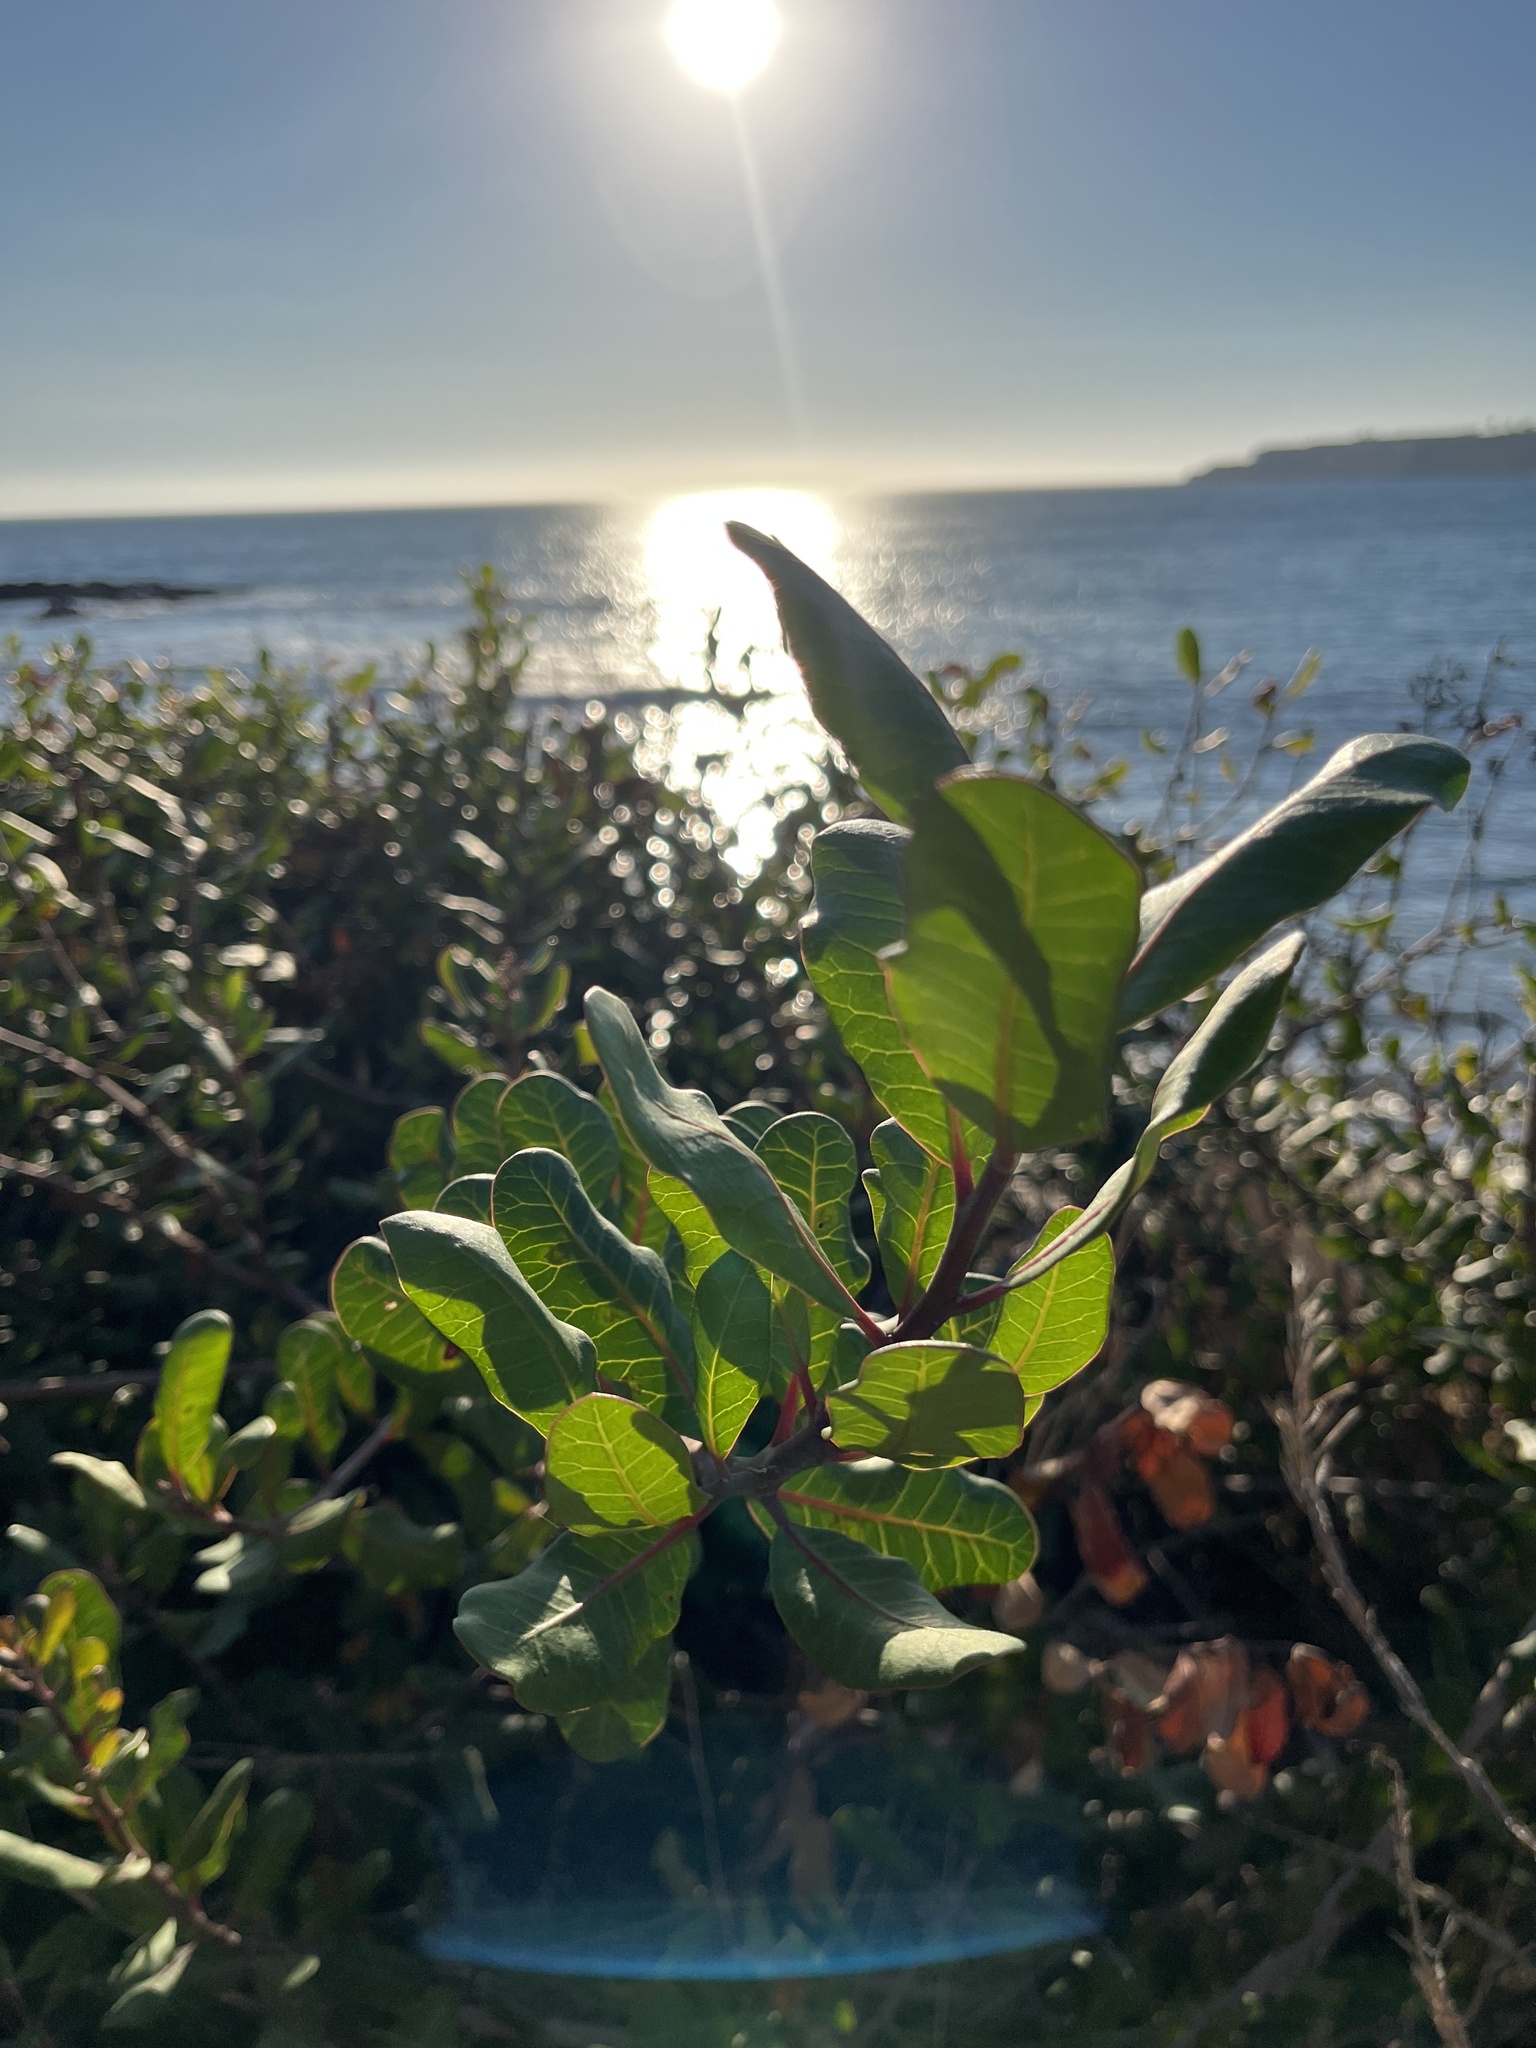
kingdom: Plantae
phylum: Tracheophyta
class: Magnoliopsida
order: Sapindales
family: Anacardiaceae
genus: Rhus
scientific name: Rhus integrifolia
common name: Lemonade sumac
